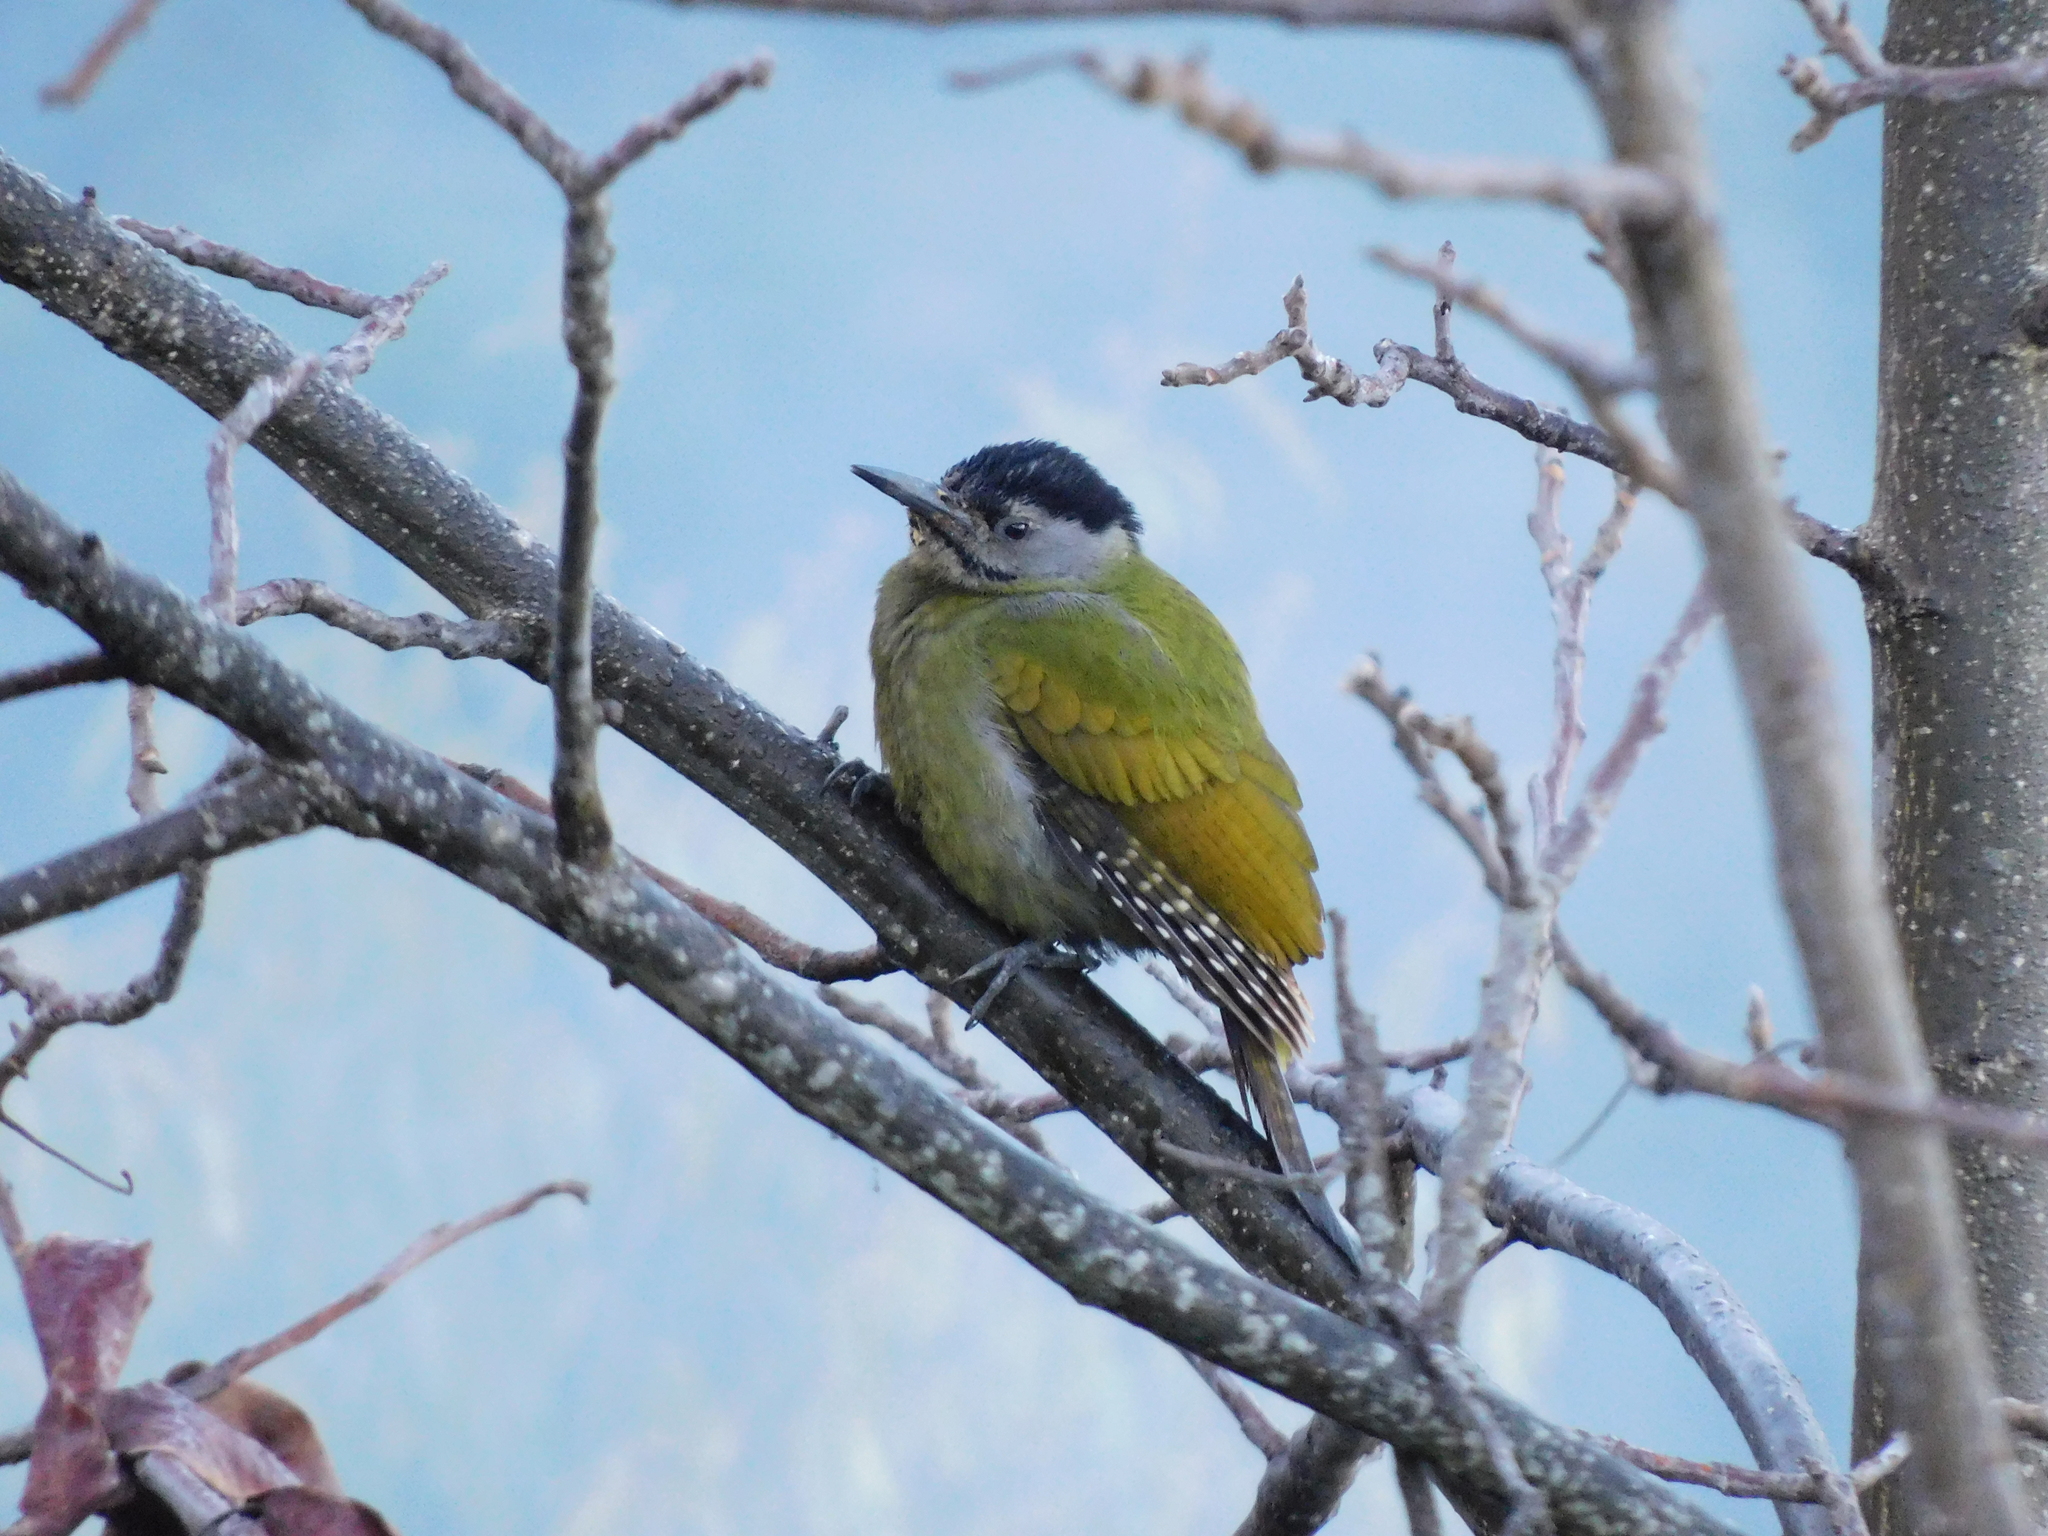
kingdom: Animalia
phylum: Chordata
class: Aves
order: Piciformes
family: Picidae
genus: Picus
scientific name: Picus canus
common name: Grey-headed woodpecker
